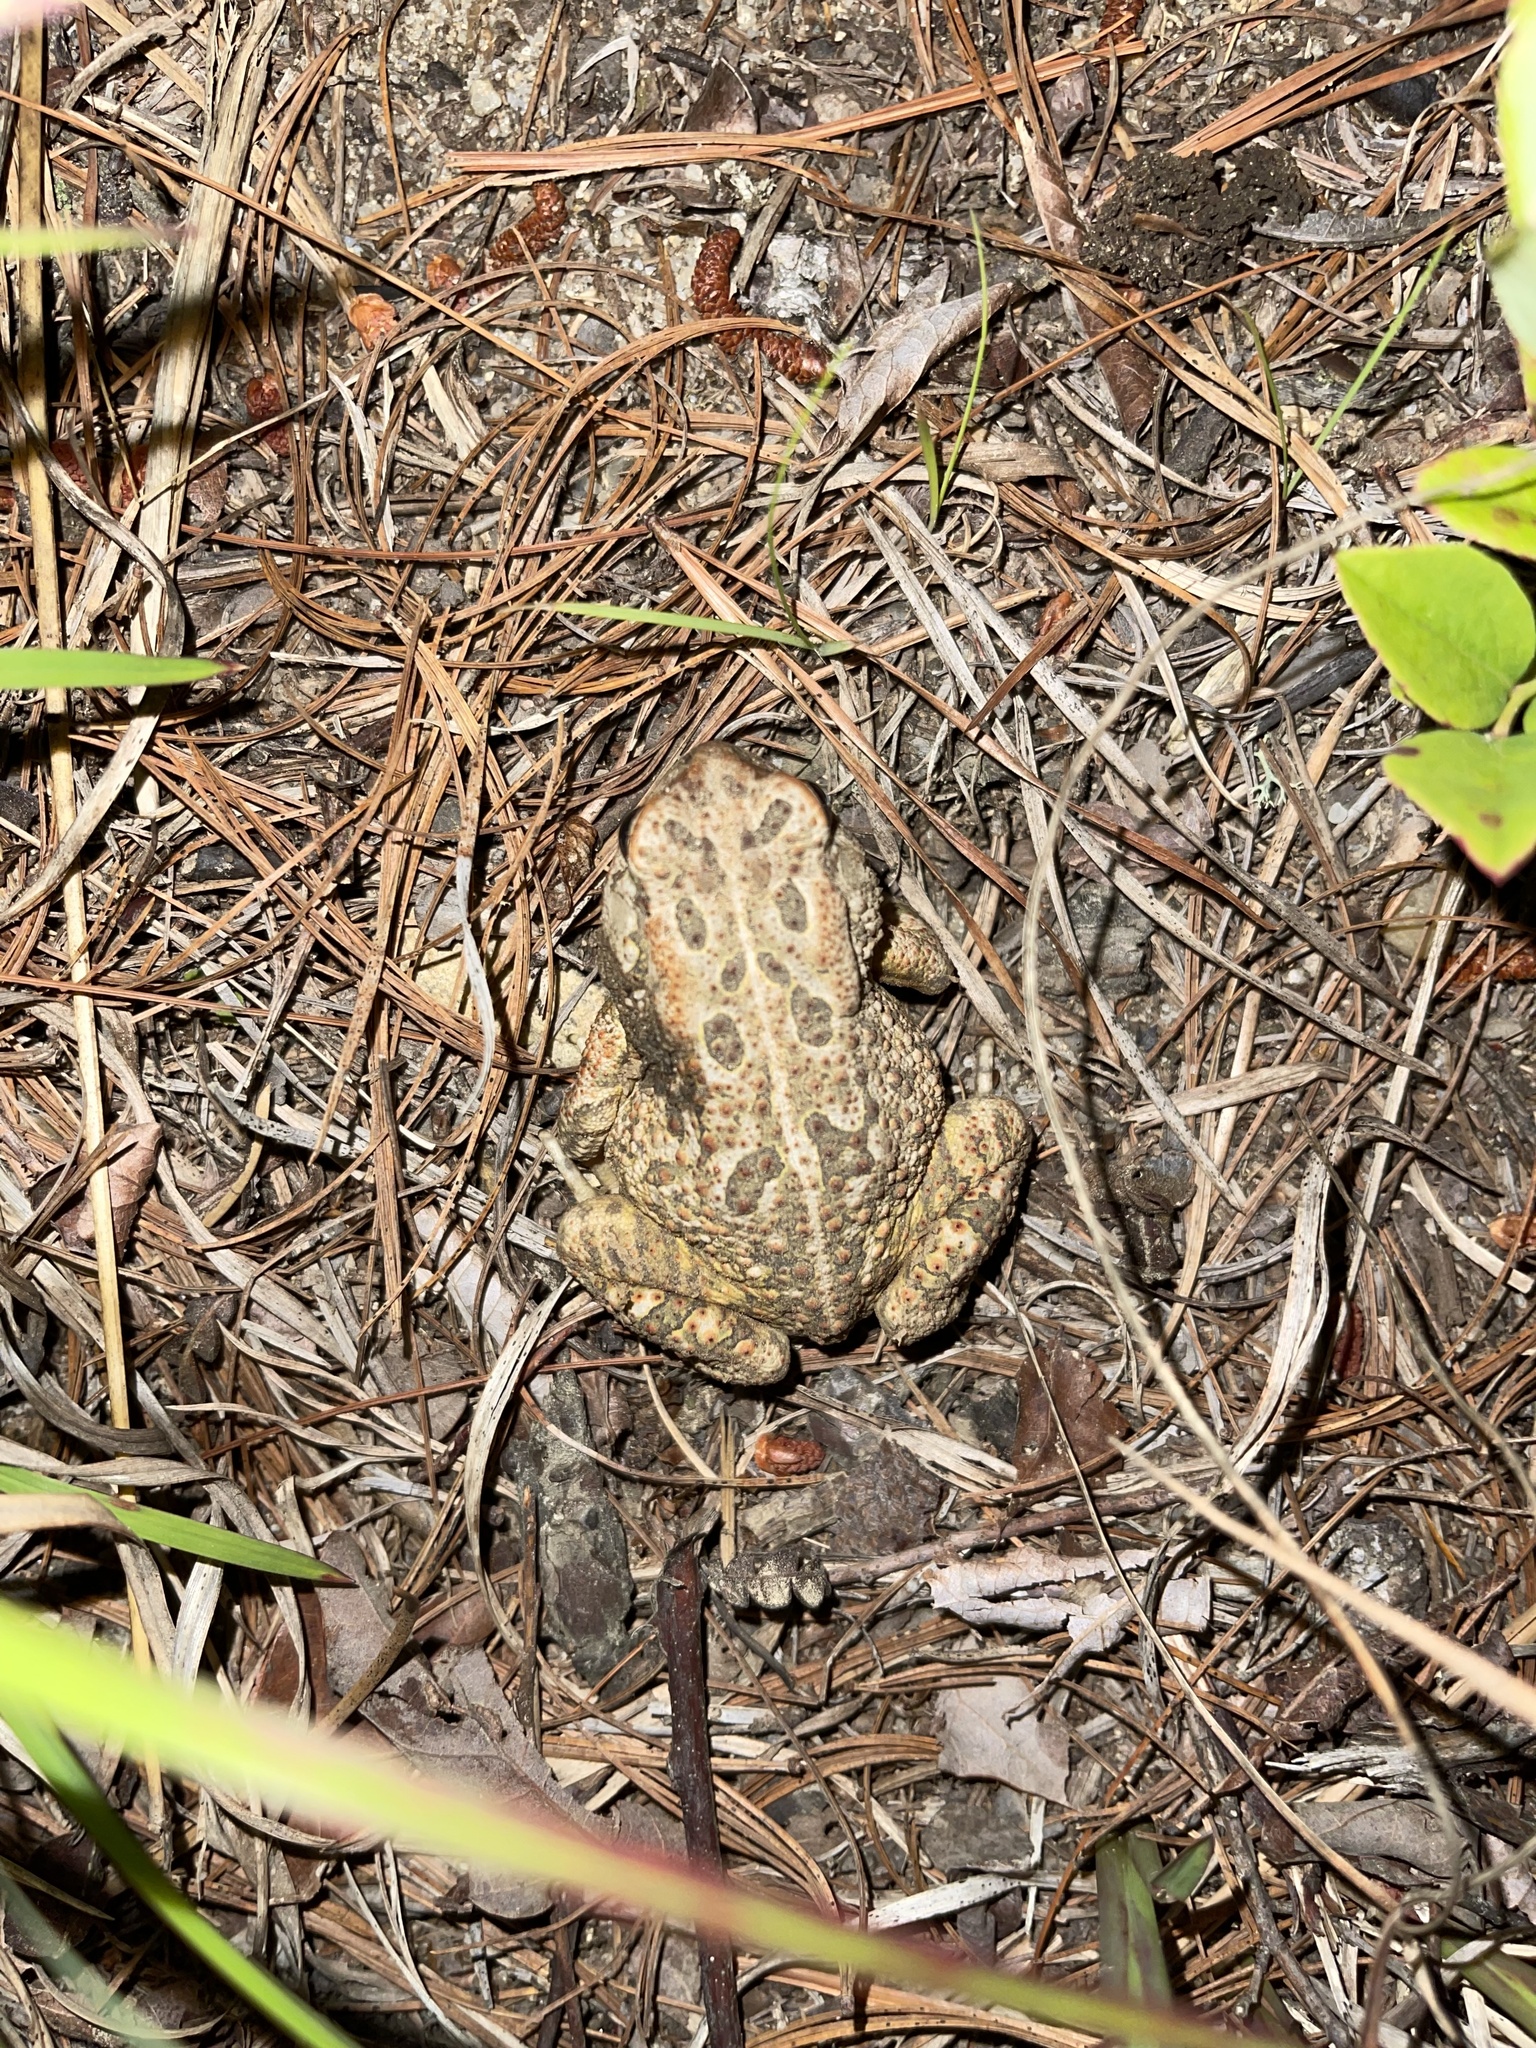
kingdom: Animalia
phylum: Chordata
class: Amphibia
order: Anura
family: Bufonidae
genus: Anaxyrus
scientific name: Anaxyrus fowleri
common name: Fowler's toad
